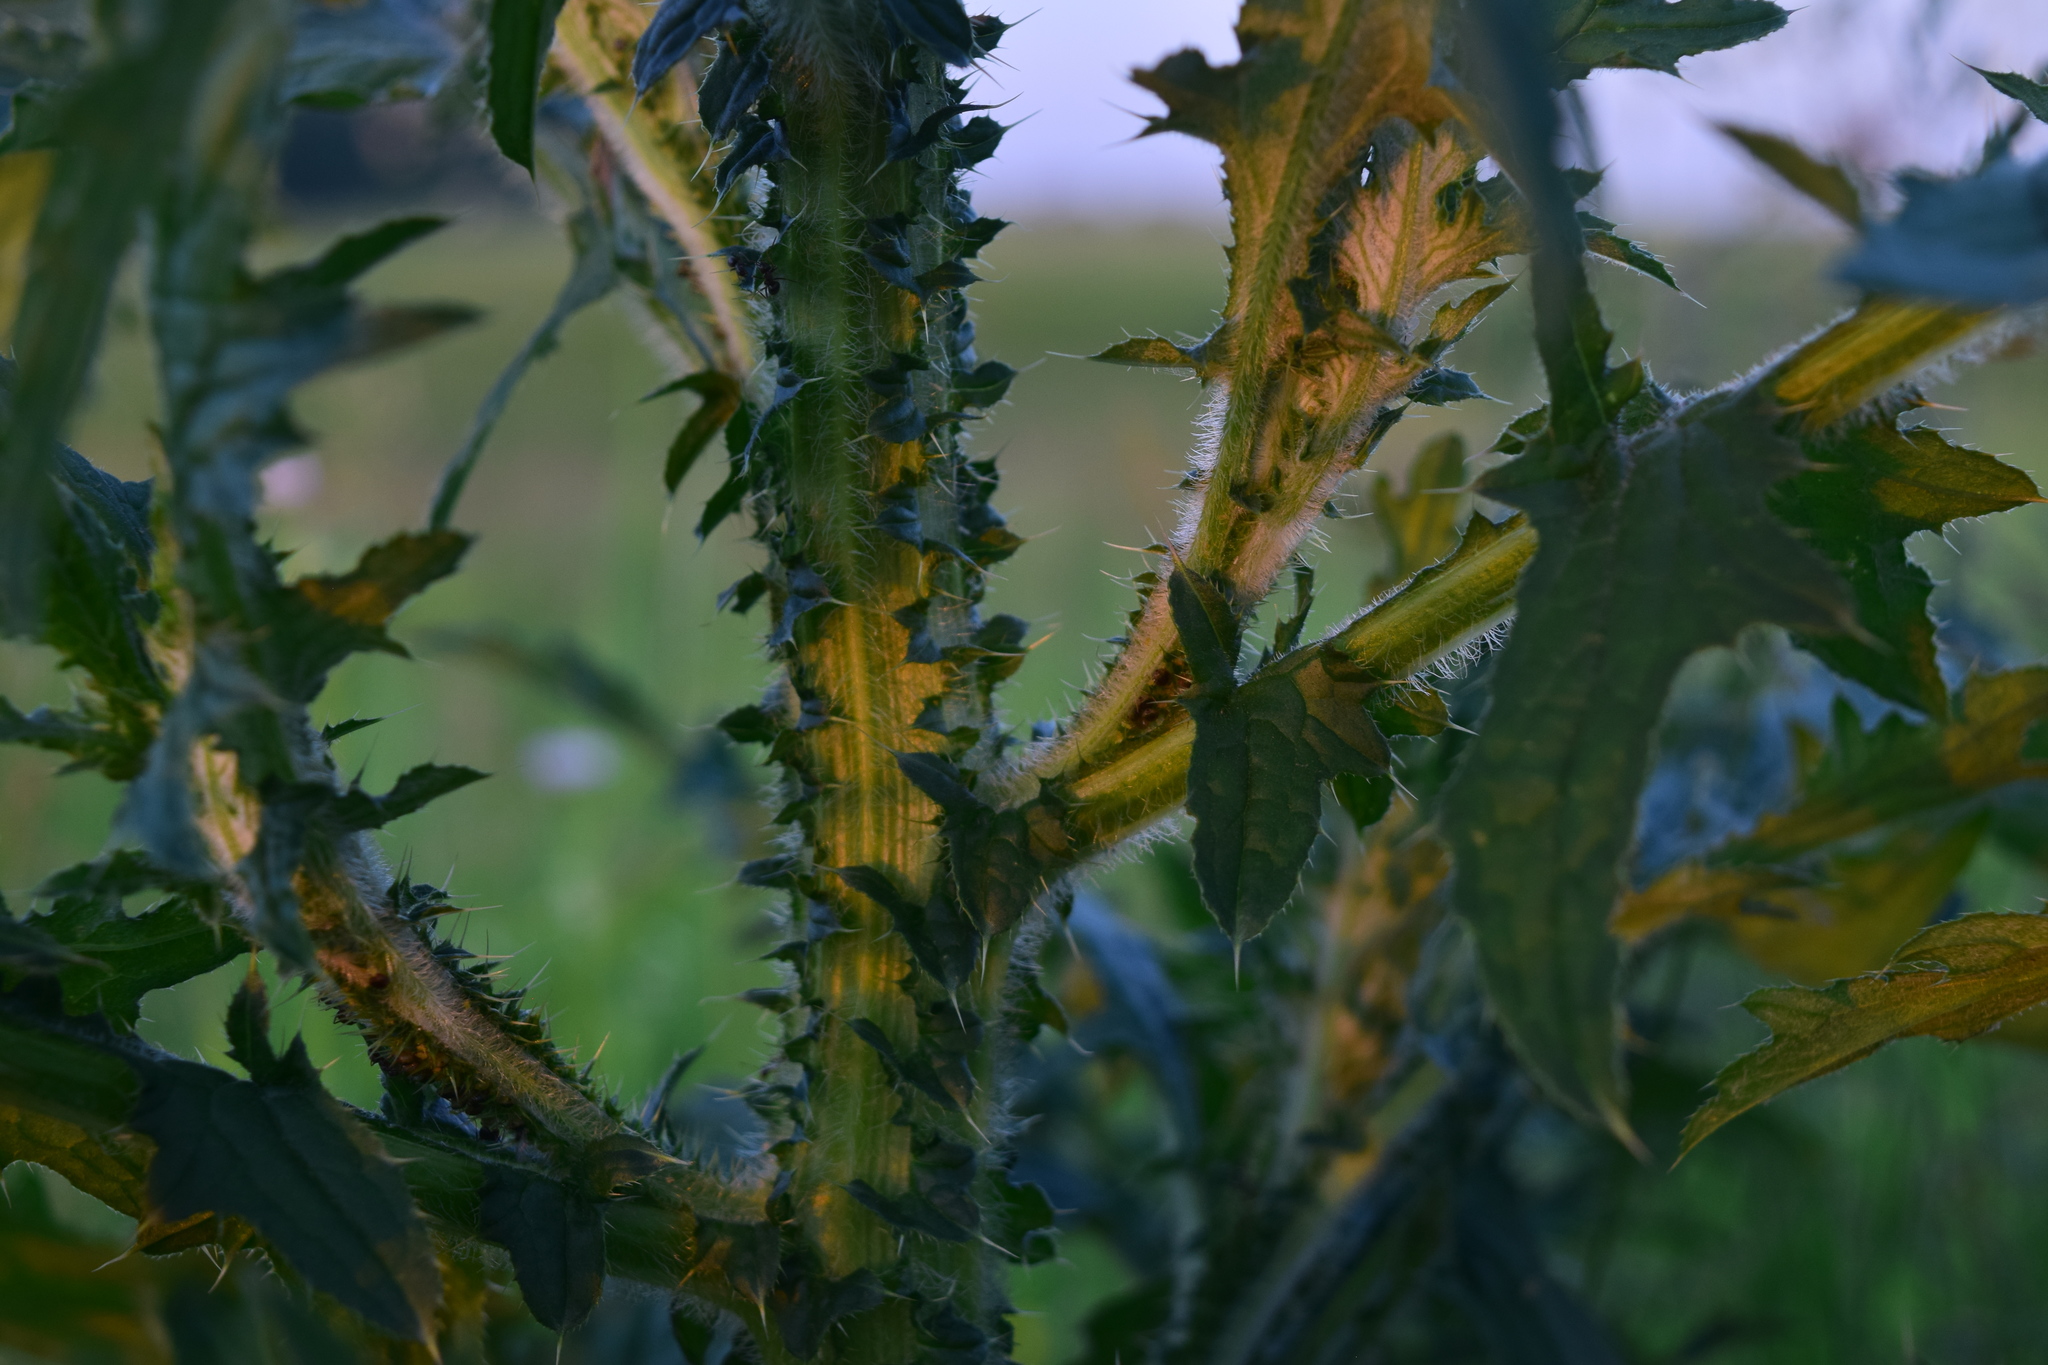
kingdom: Plantae
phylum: Tracheophyta
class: Magnoliopsida
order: Asterales
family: Asteraceae
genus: Carduus
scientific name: Carduus crispus
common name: Welted thistle
